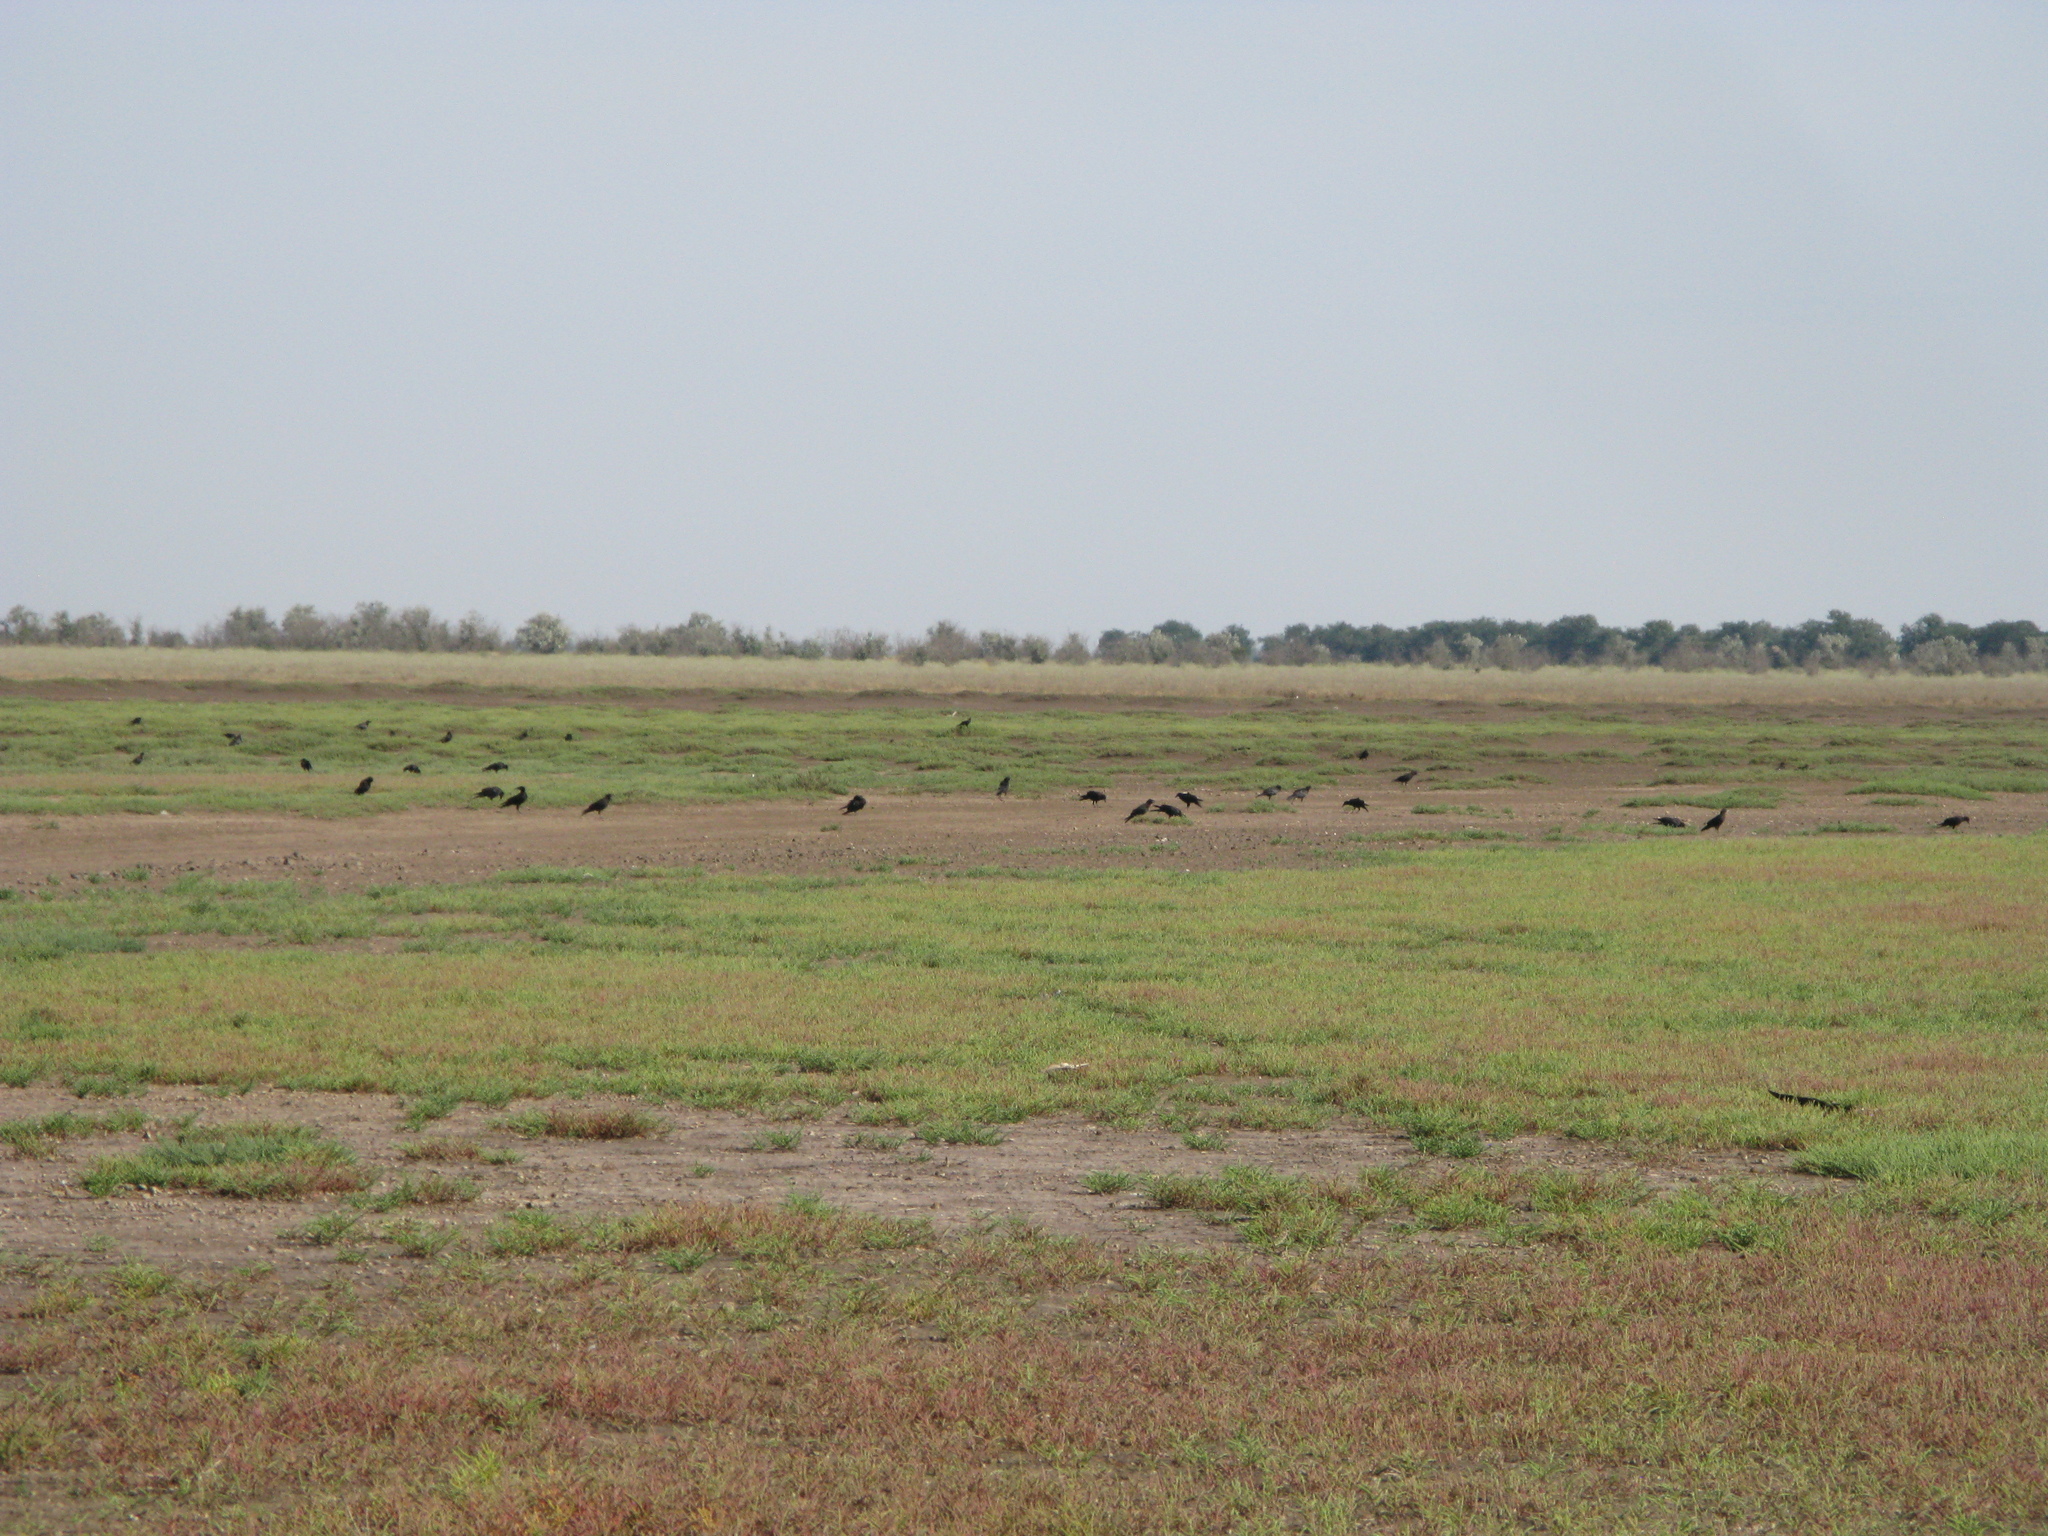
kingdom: Animalia
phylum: Chordata
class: Aves
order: Passeriformes
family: Corvidae
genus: Corvus
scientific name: Corvus frugilegus
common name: Rook
